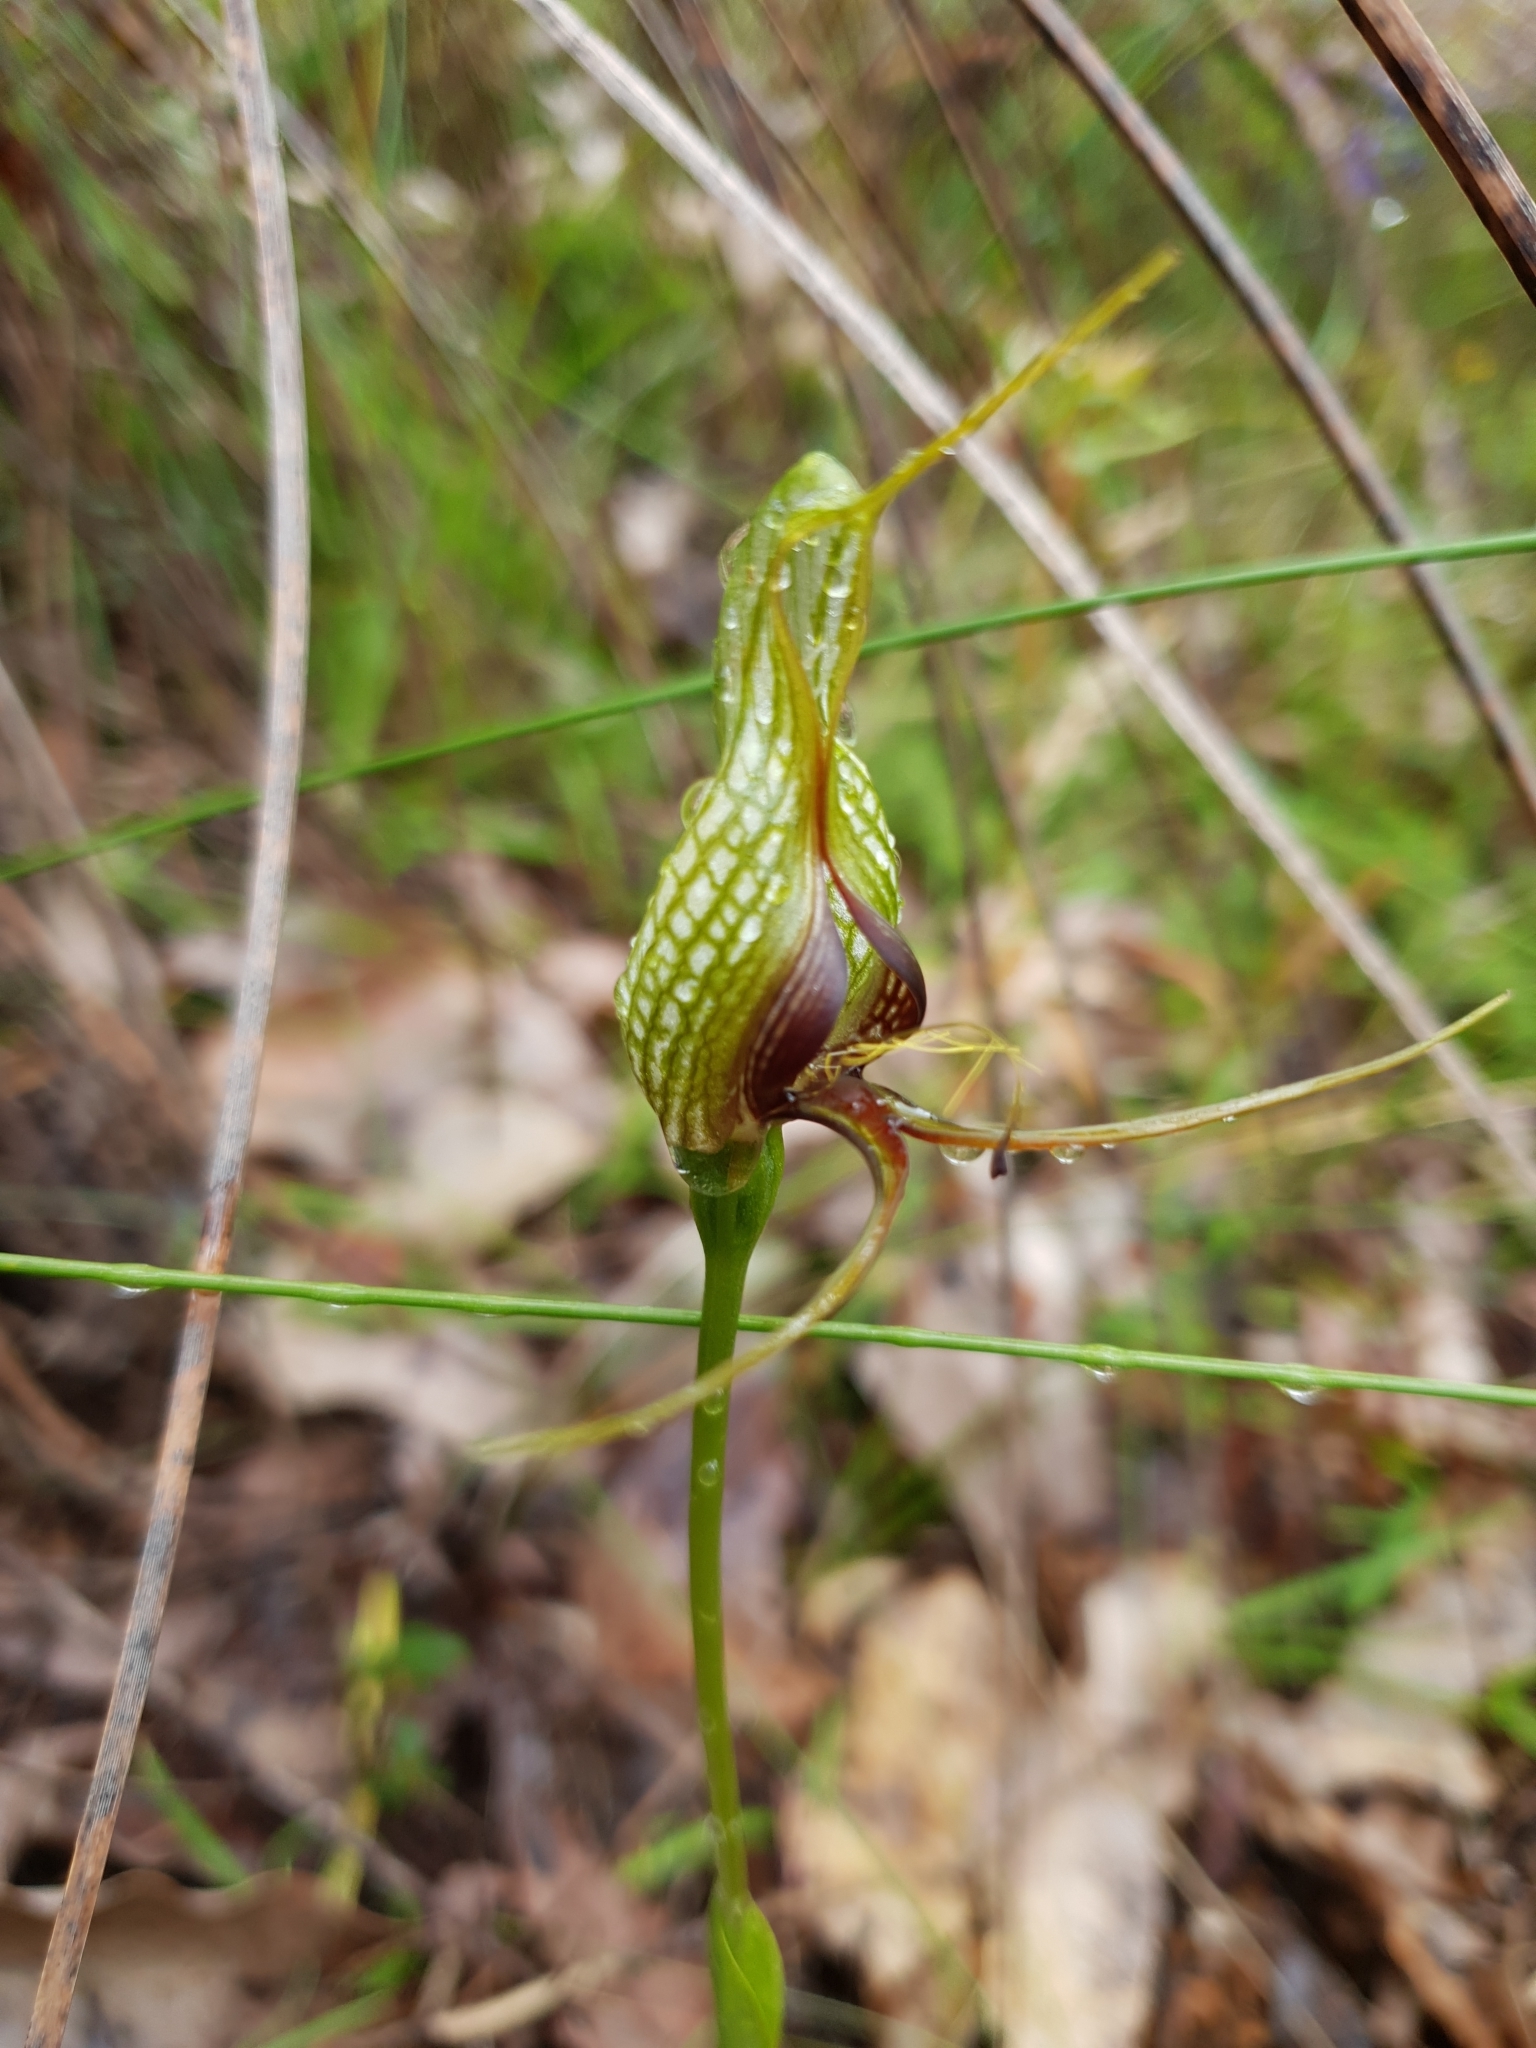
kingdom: Plantae
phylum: Tracheophyta
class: Liliopsida
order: Asparagales
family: Orchidaceae
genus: Pterostylis
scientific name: Pterostylis barbata
